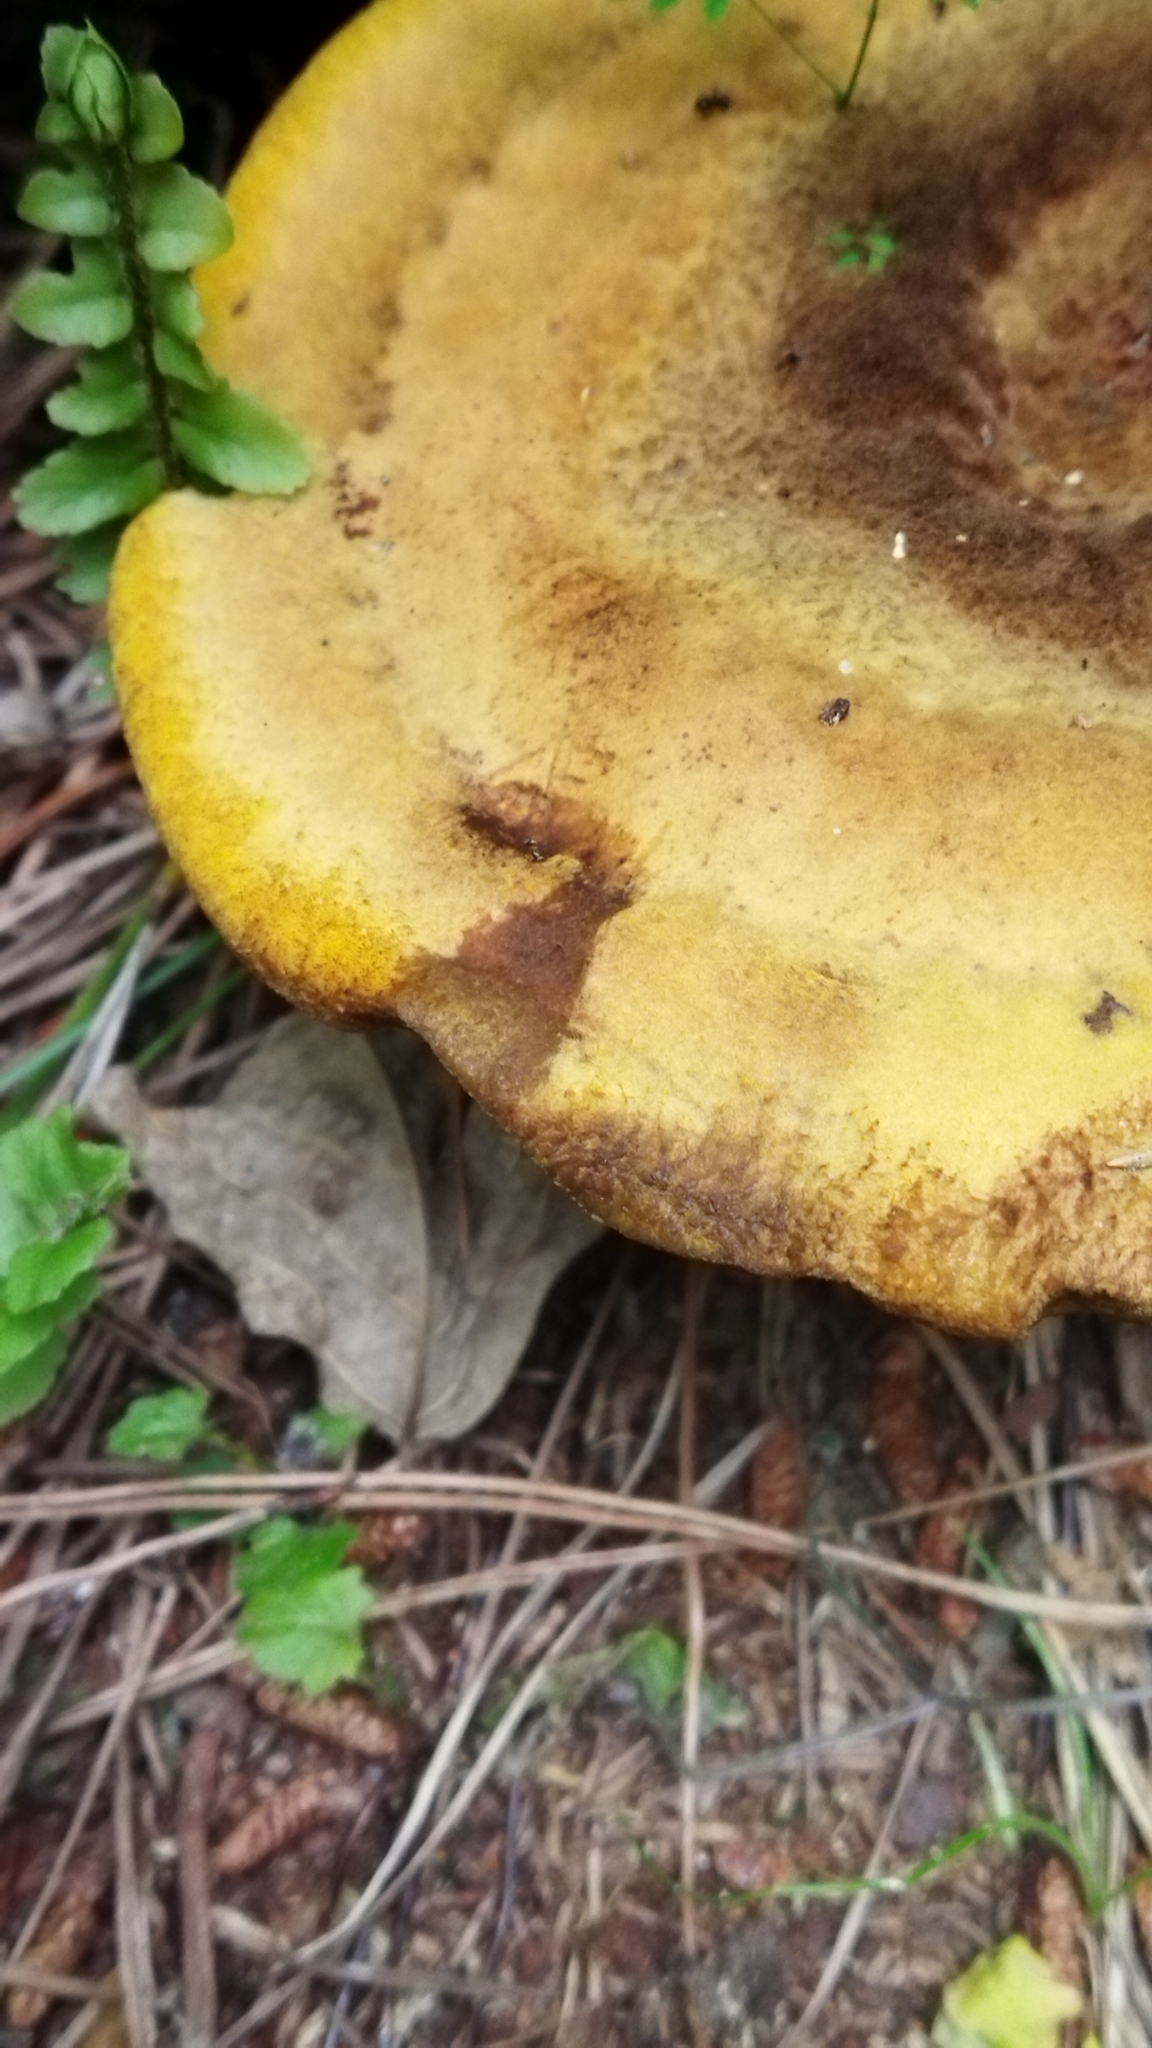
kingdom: Fungi
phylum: Basidiomycota
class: Agaricomycetes
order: Polyporales
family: Laetiporaceae
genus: Phaeolus
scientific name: Phaeolus schweinitzii
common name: Dyer's mazegill
